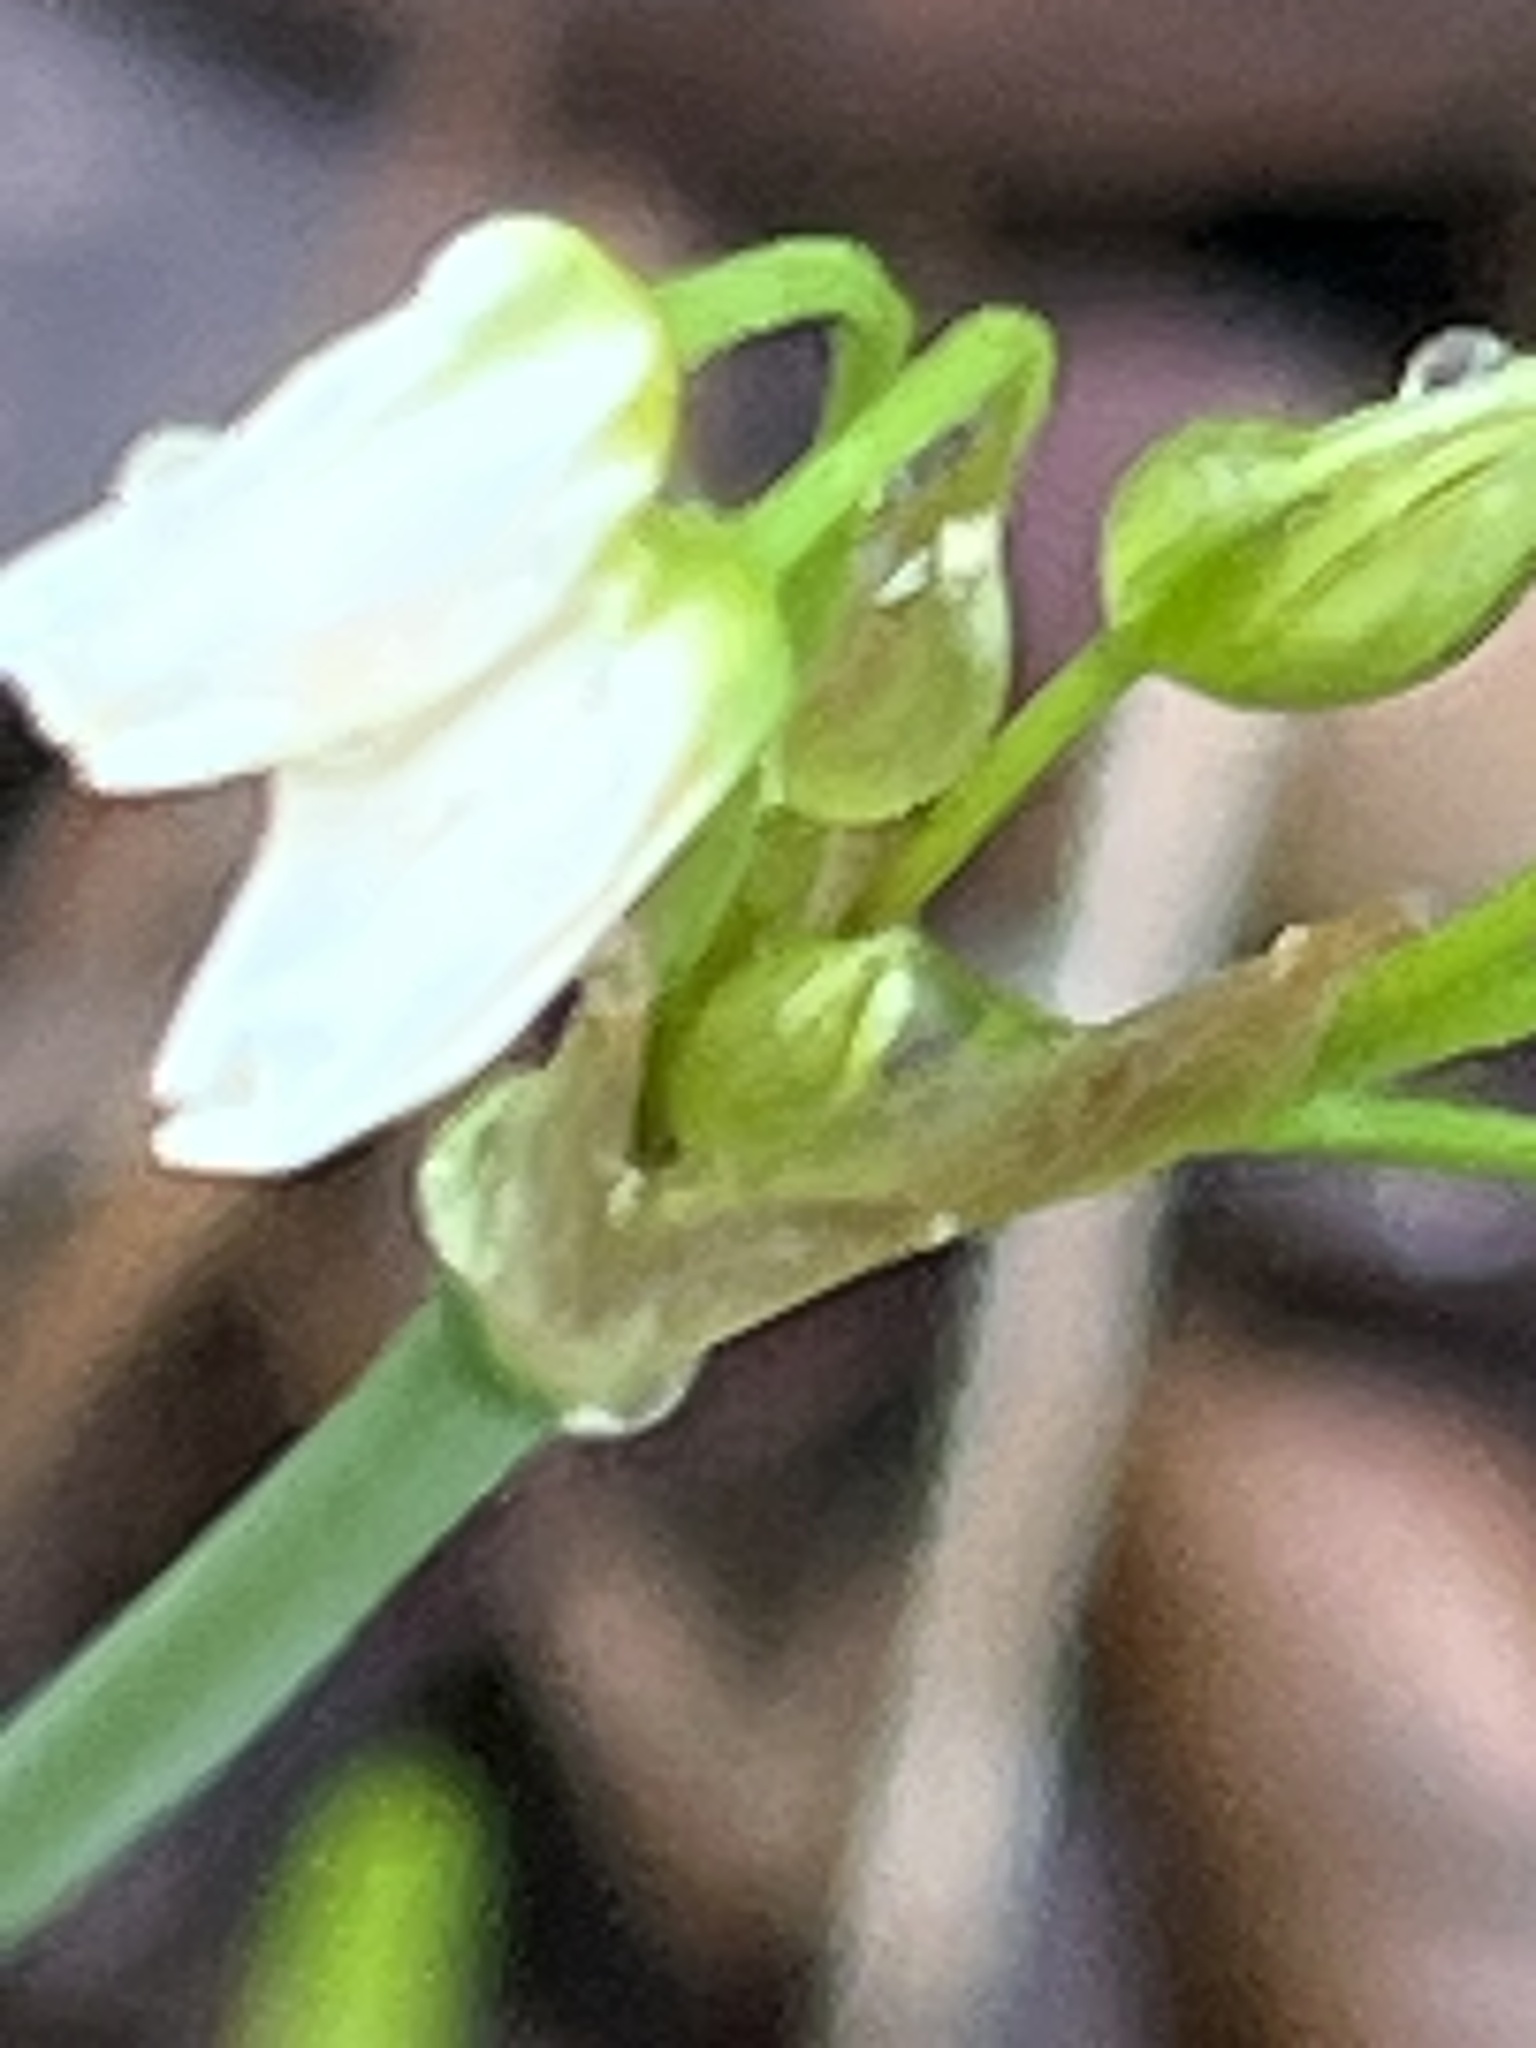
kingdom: Plantae
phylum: Tracheophyta
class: Liliopsida
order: Asparagales
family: Amaryllidaceae
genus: Nothoscordum
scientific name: Nothoscordum bivalve
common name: Crow-poison
